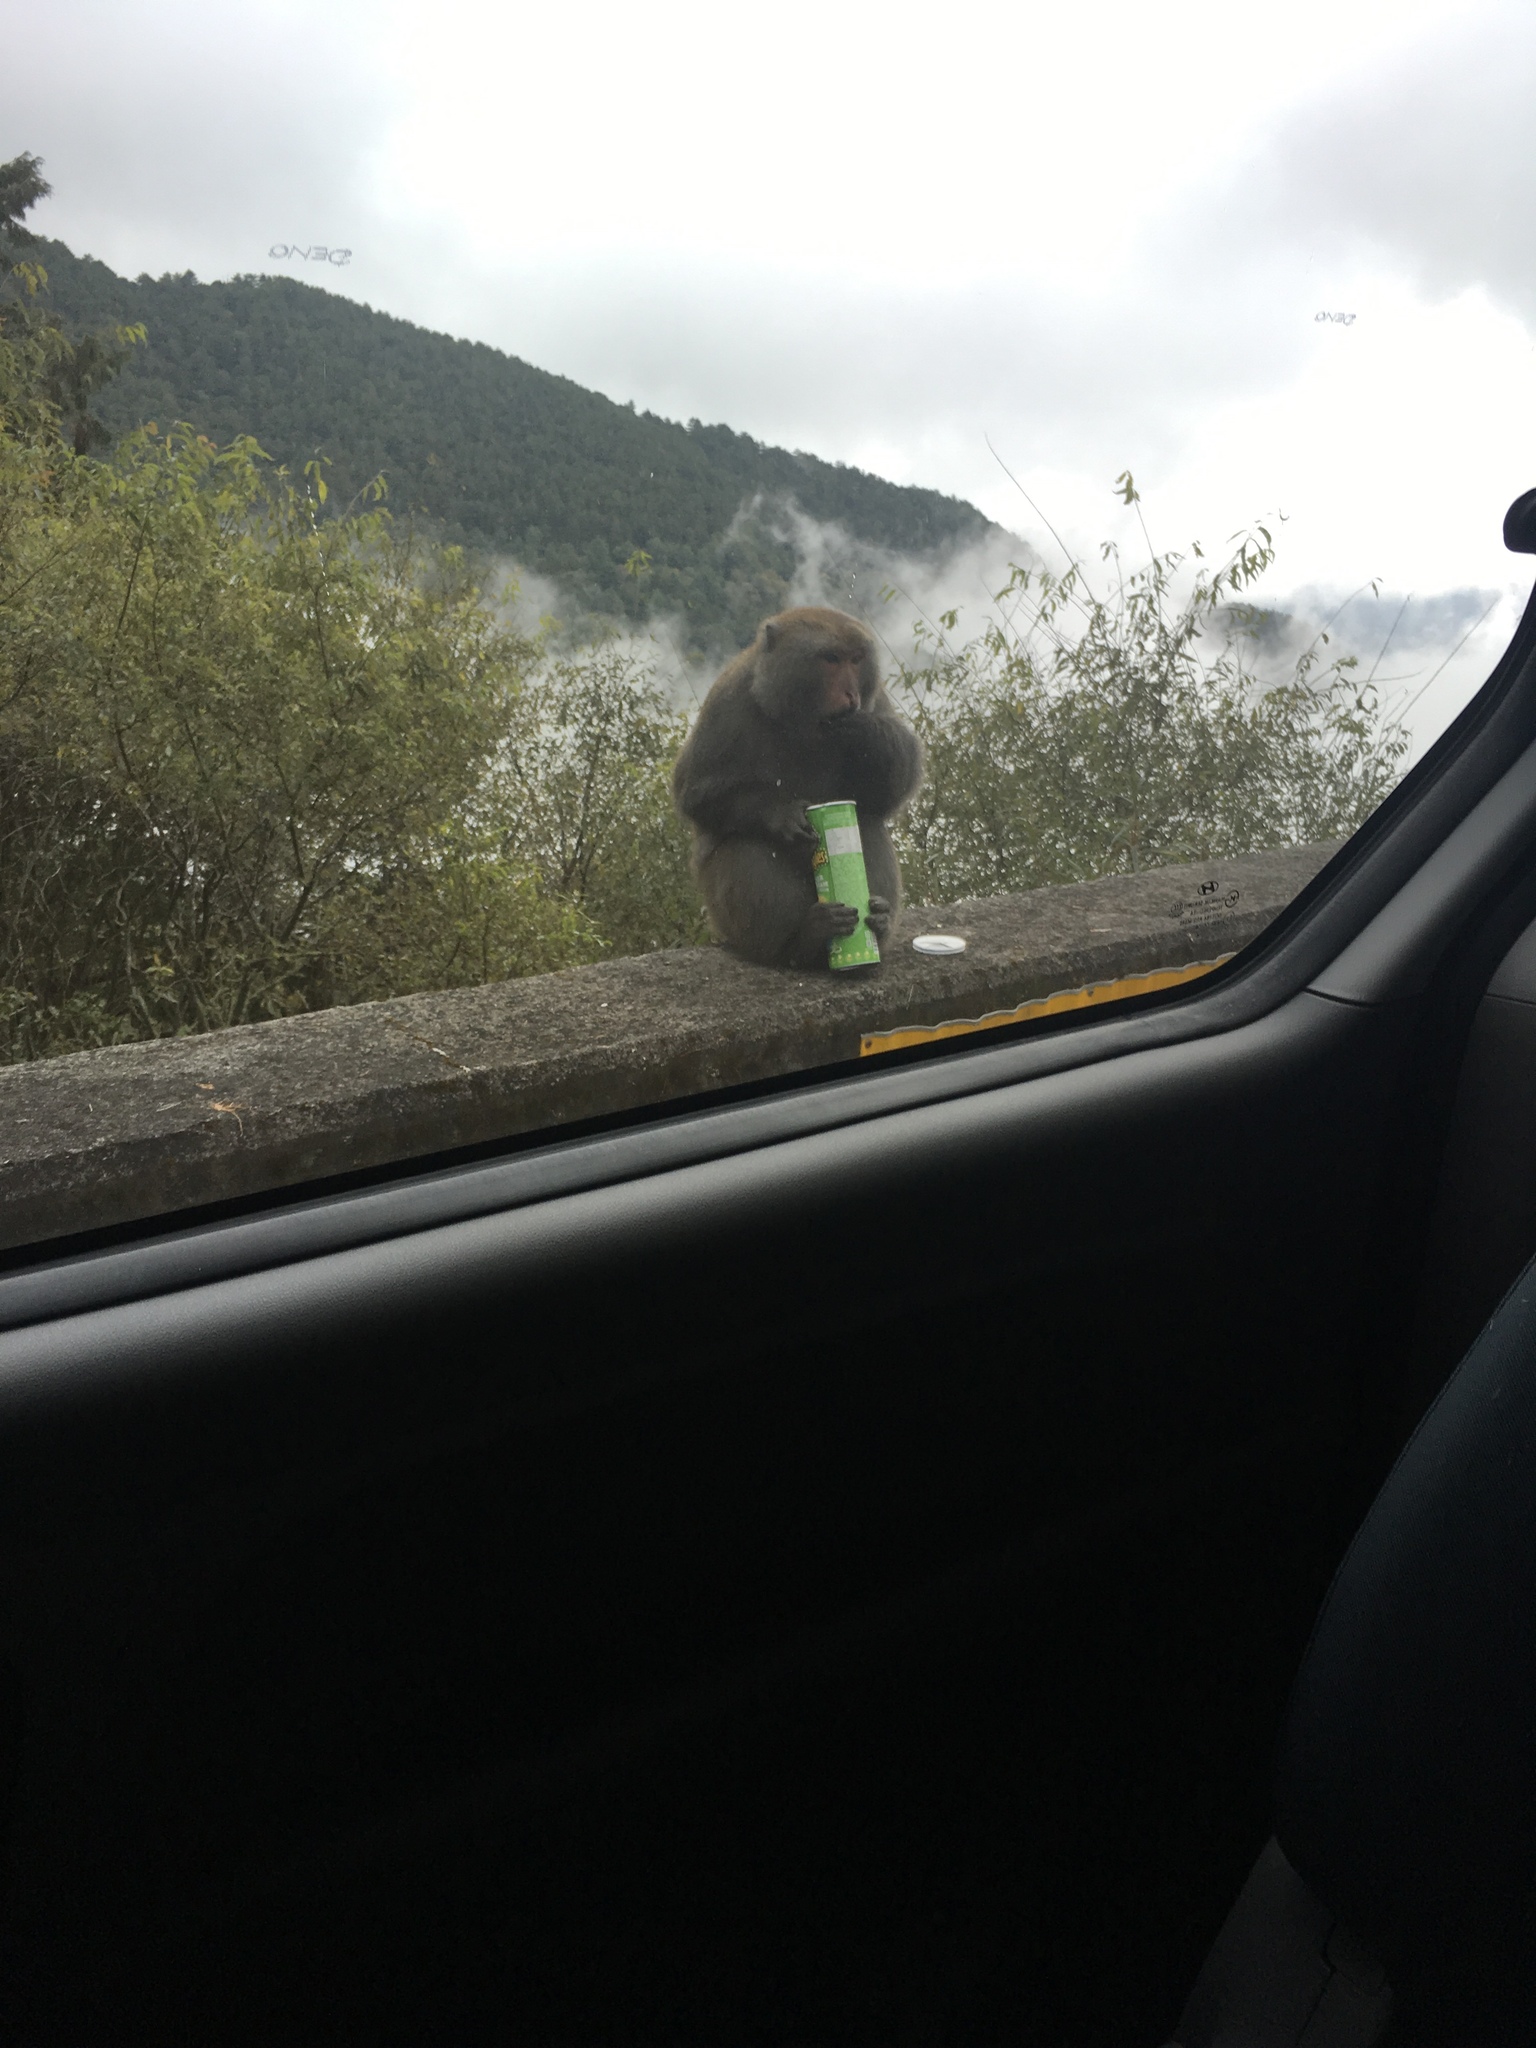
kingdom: Animalia
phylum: Chordata
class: Mammalia
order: Primates
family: Cercopithecidae
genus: Macaca
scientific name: Macaca cyclopis
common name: Formosan rock macaque
